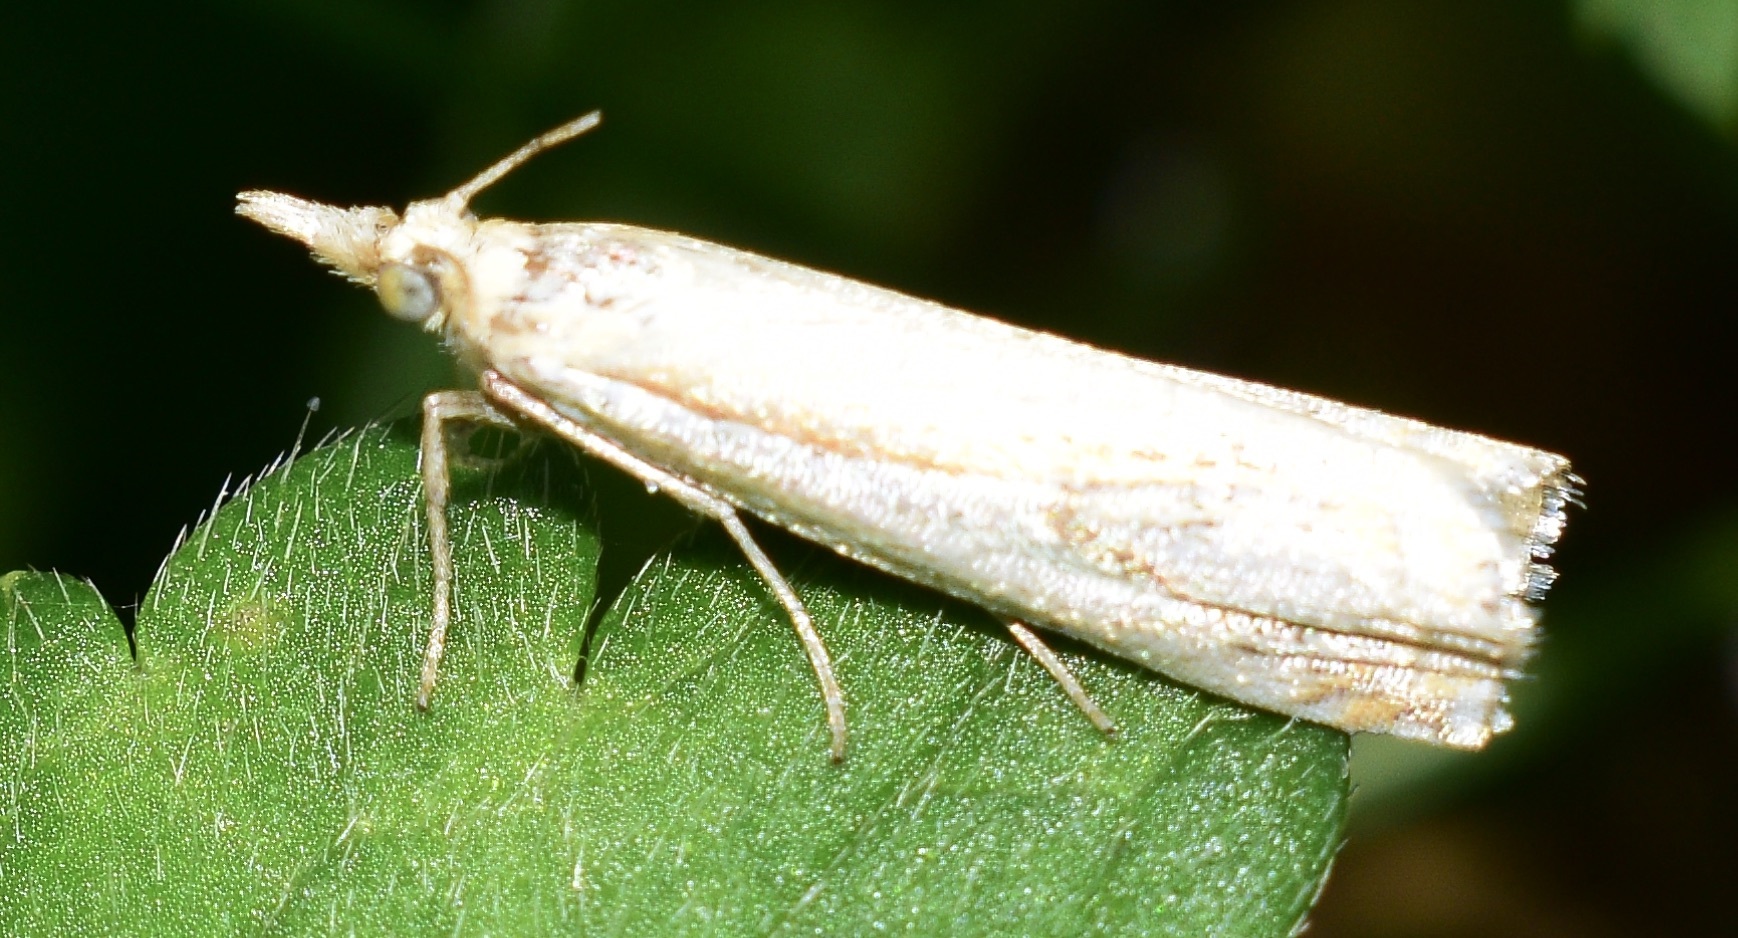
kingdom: Animalia
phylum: Arthropoda
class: Insecta
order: Lepidoptera
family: Crambidae
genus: Crambus
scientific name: Crambus
